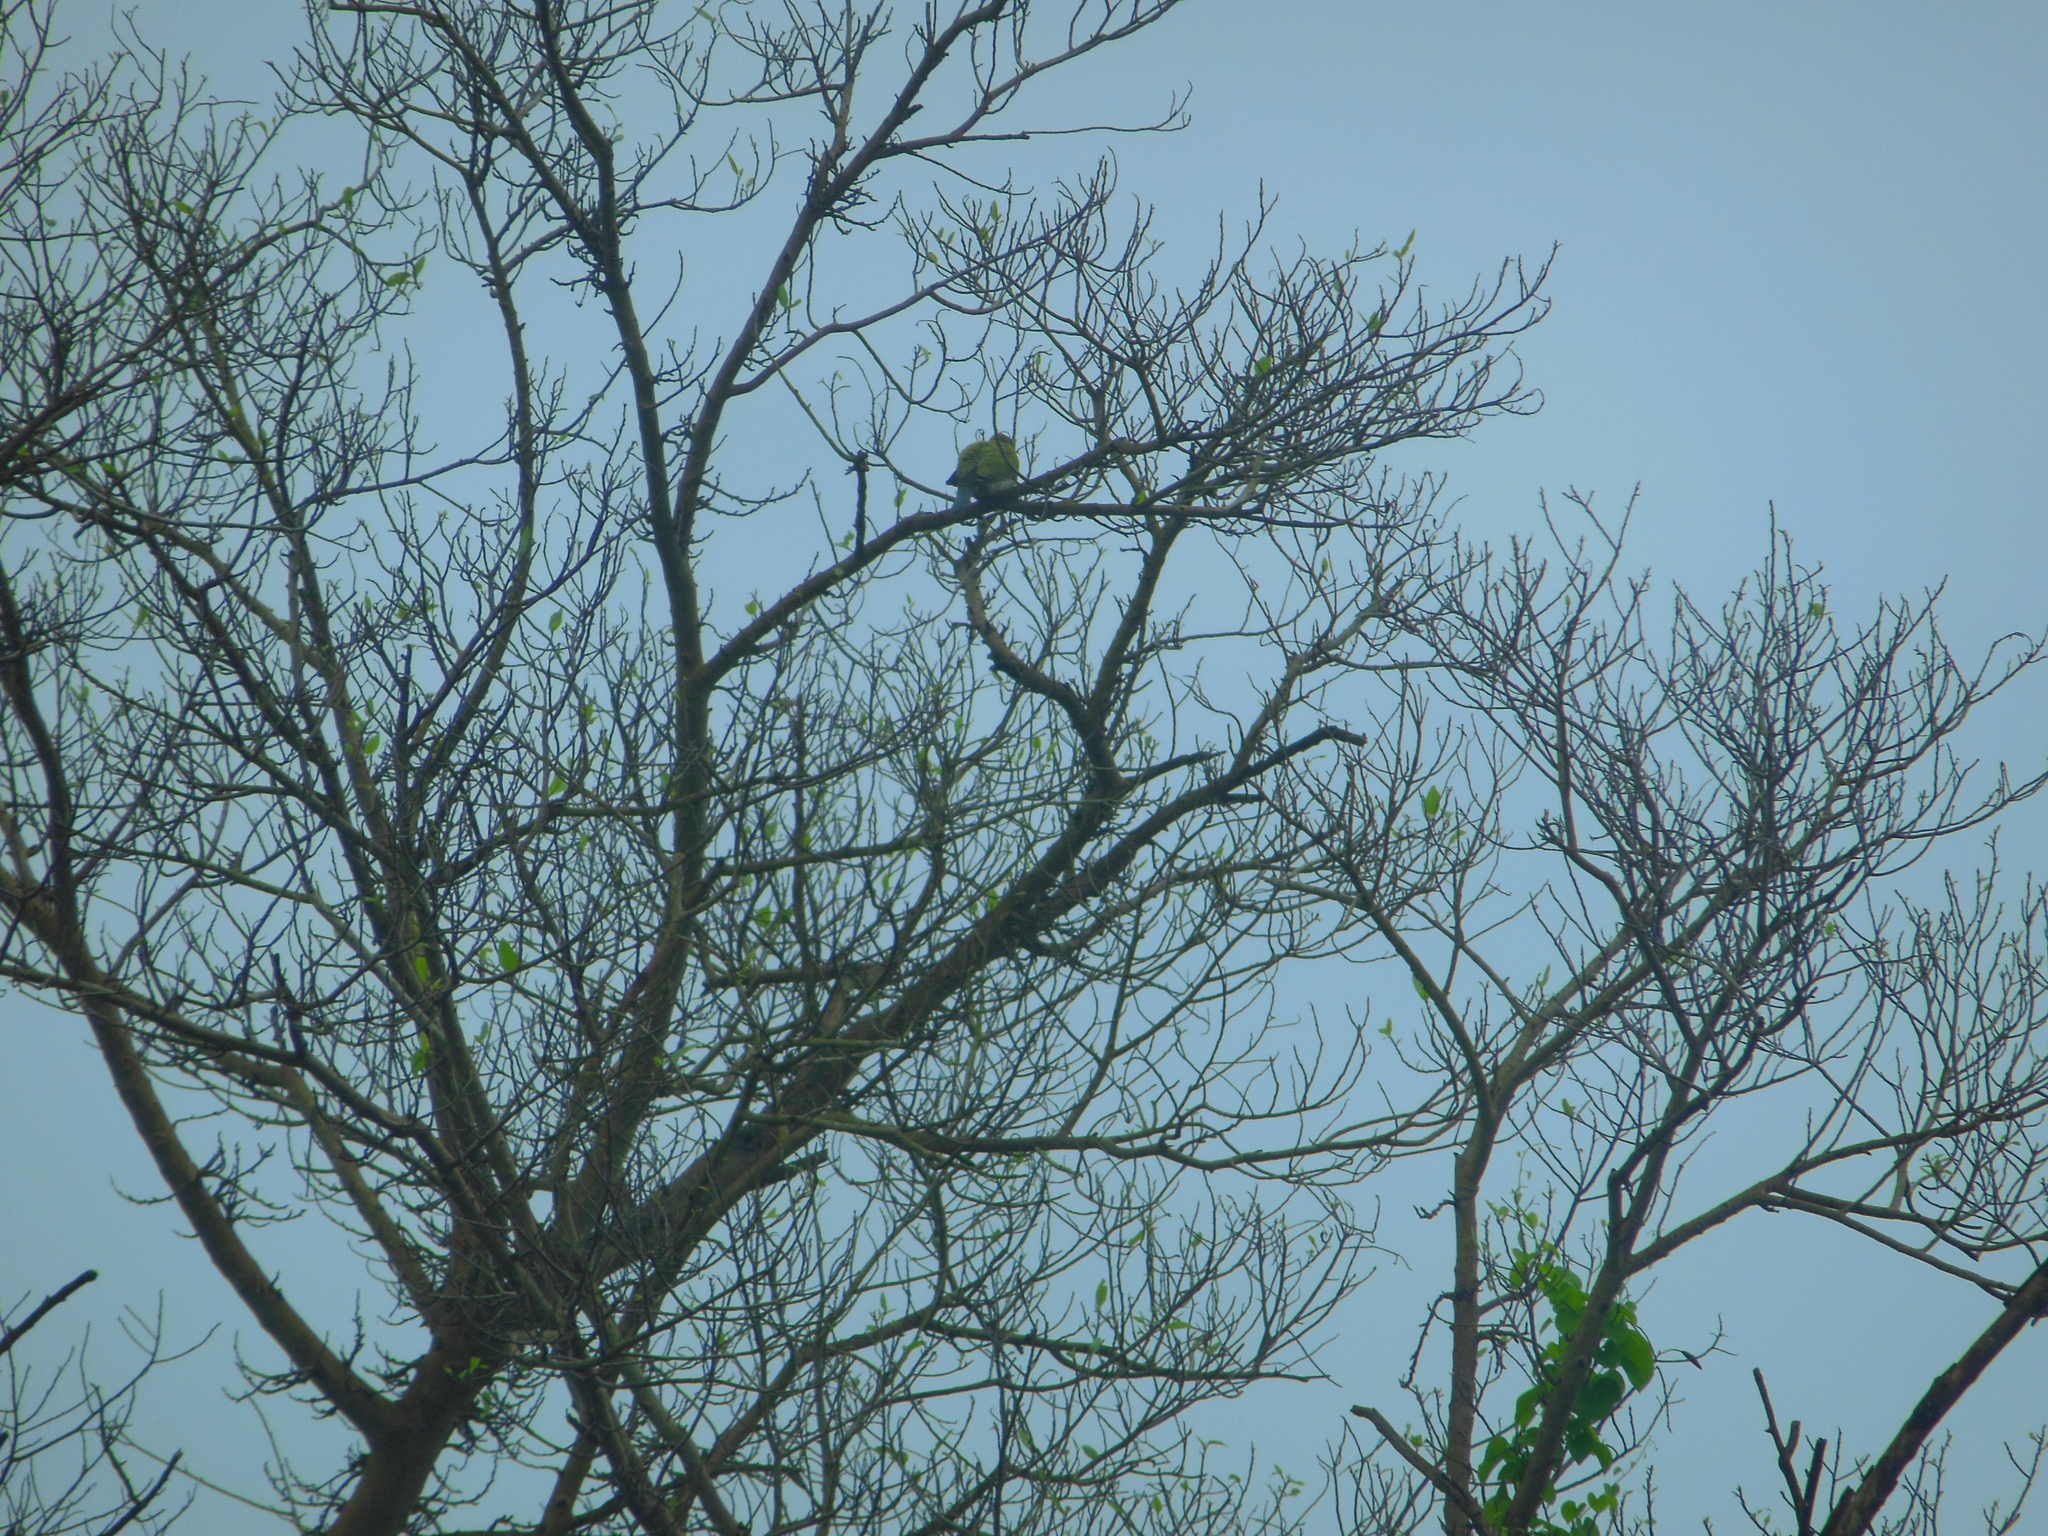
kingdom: Animalia
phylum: Chordata
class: Aves
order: Columbiformes
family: Columbidae
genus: Treron
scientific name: Treron phoenicopterus
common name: Yellow-footed green pigeon
